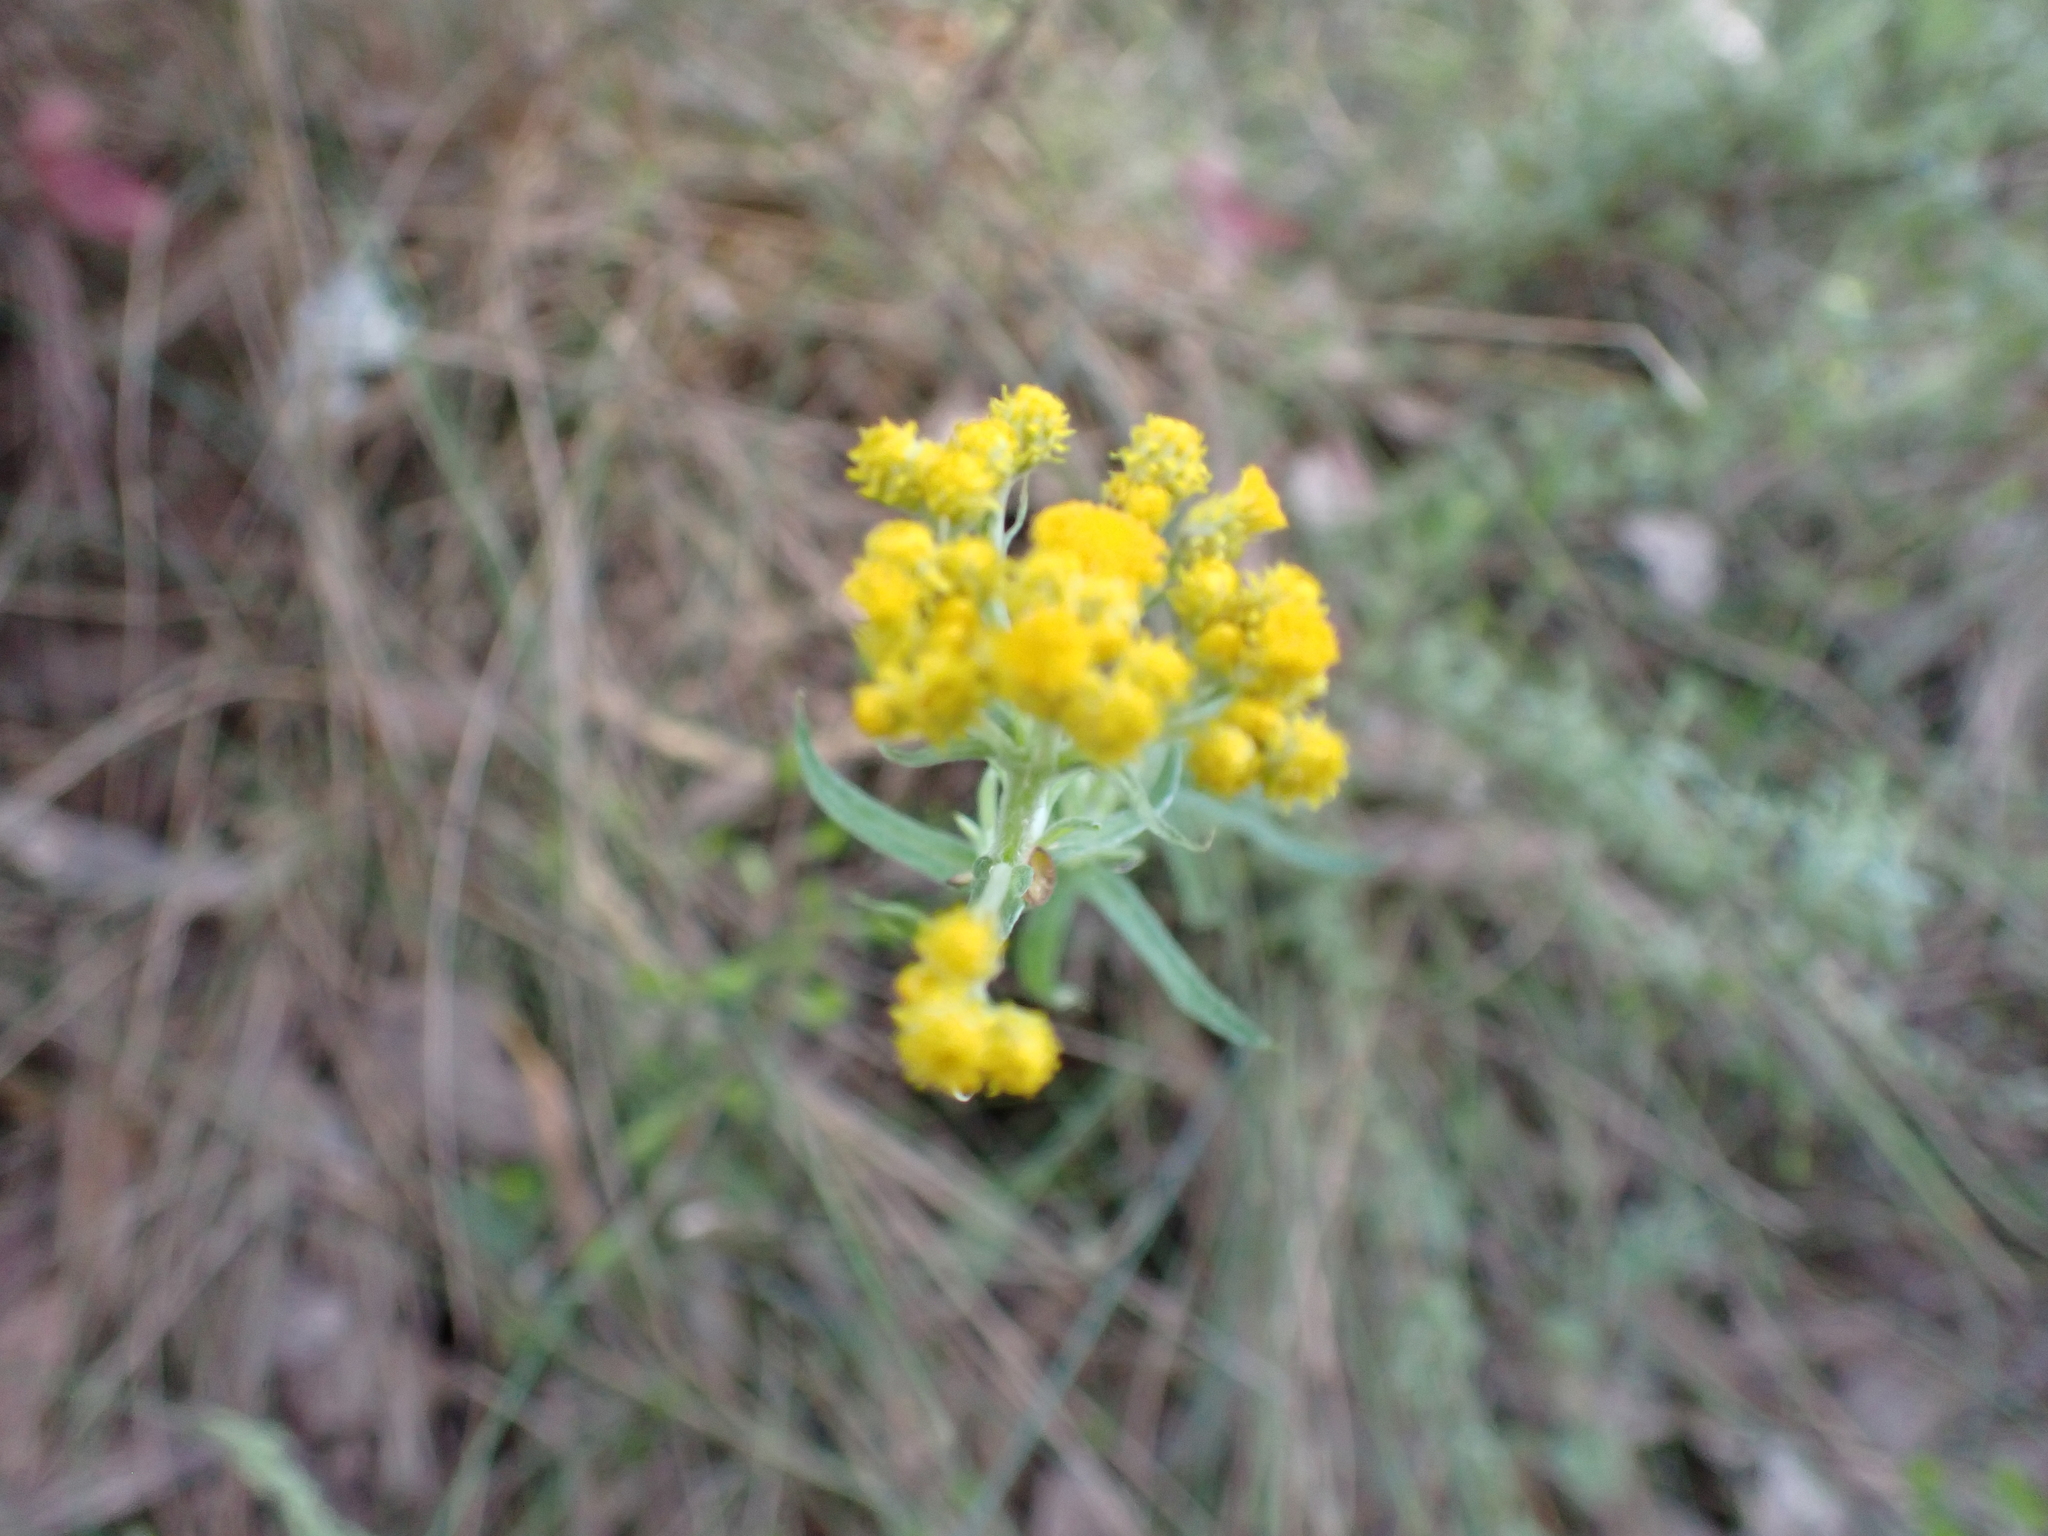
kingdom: Plantae
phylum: Tracheophyta
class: Magnoliopsida
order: Asterales
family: Asteraceae
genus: Chrysocephalum
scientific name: Chrysocephalum semipapposum
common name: Clustered everlasting
